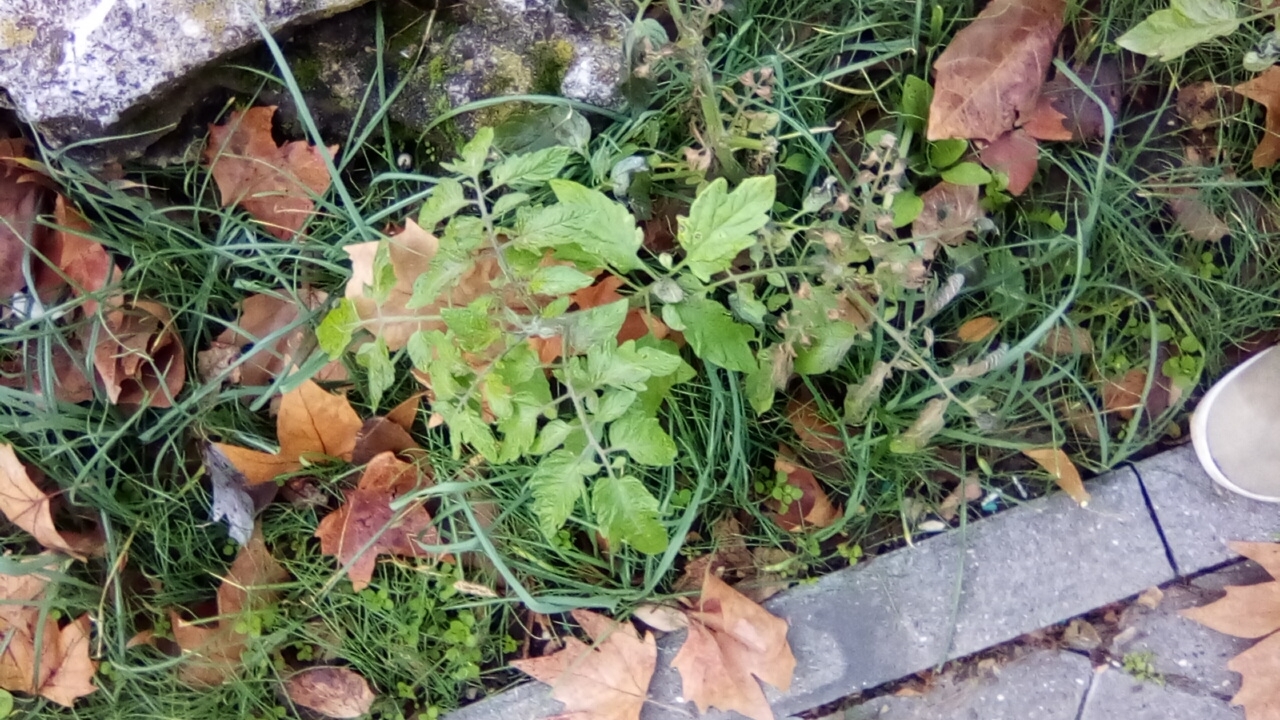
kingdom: Plantae
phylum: Tracheophyta
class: Magnoliopsida
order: Solanales
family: Solanaceae
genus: Solanum
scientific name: Solanum lycopersicum
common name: Garden tomato
